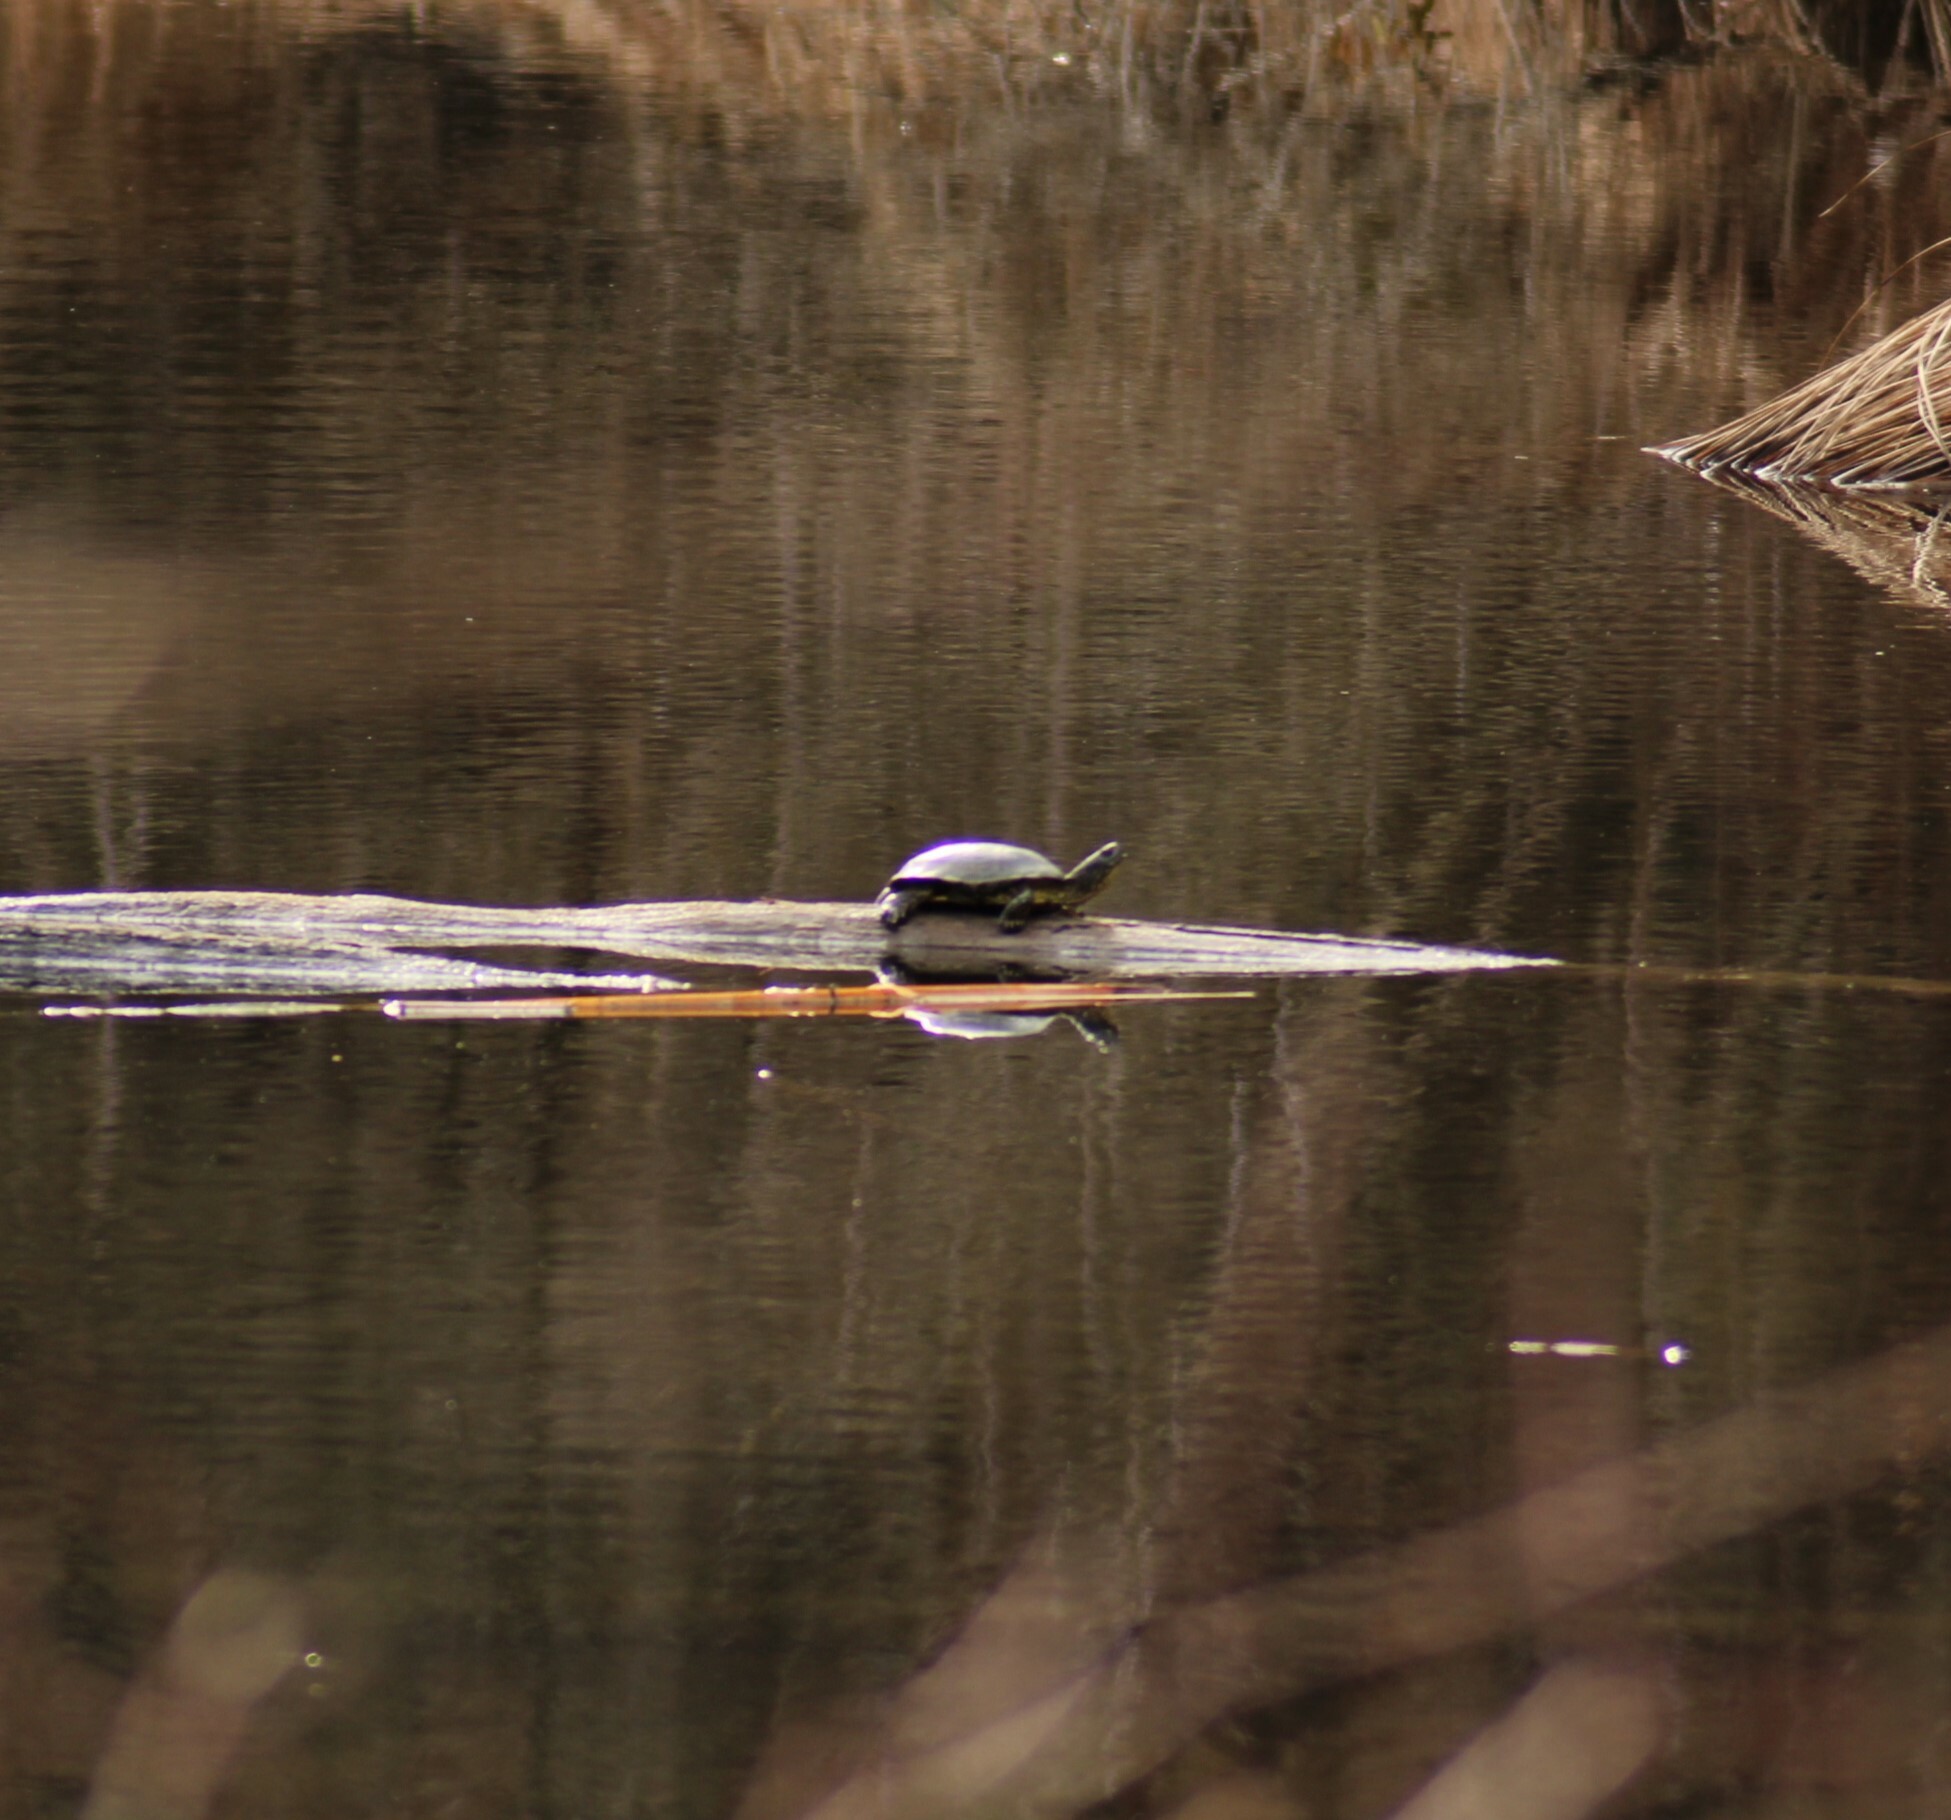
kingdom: Animalia
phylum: Chordata
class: Testudines
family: Emydidae
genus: Emys
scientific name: Emys orbicularis
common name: European pond turtle
